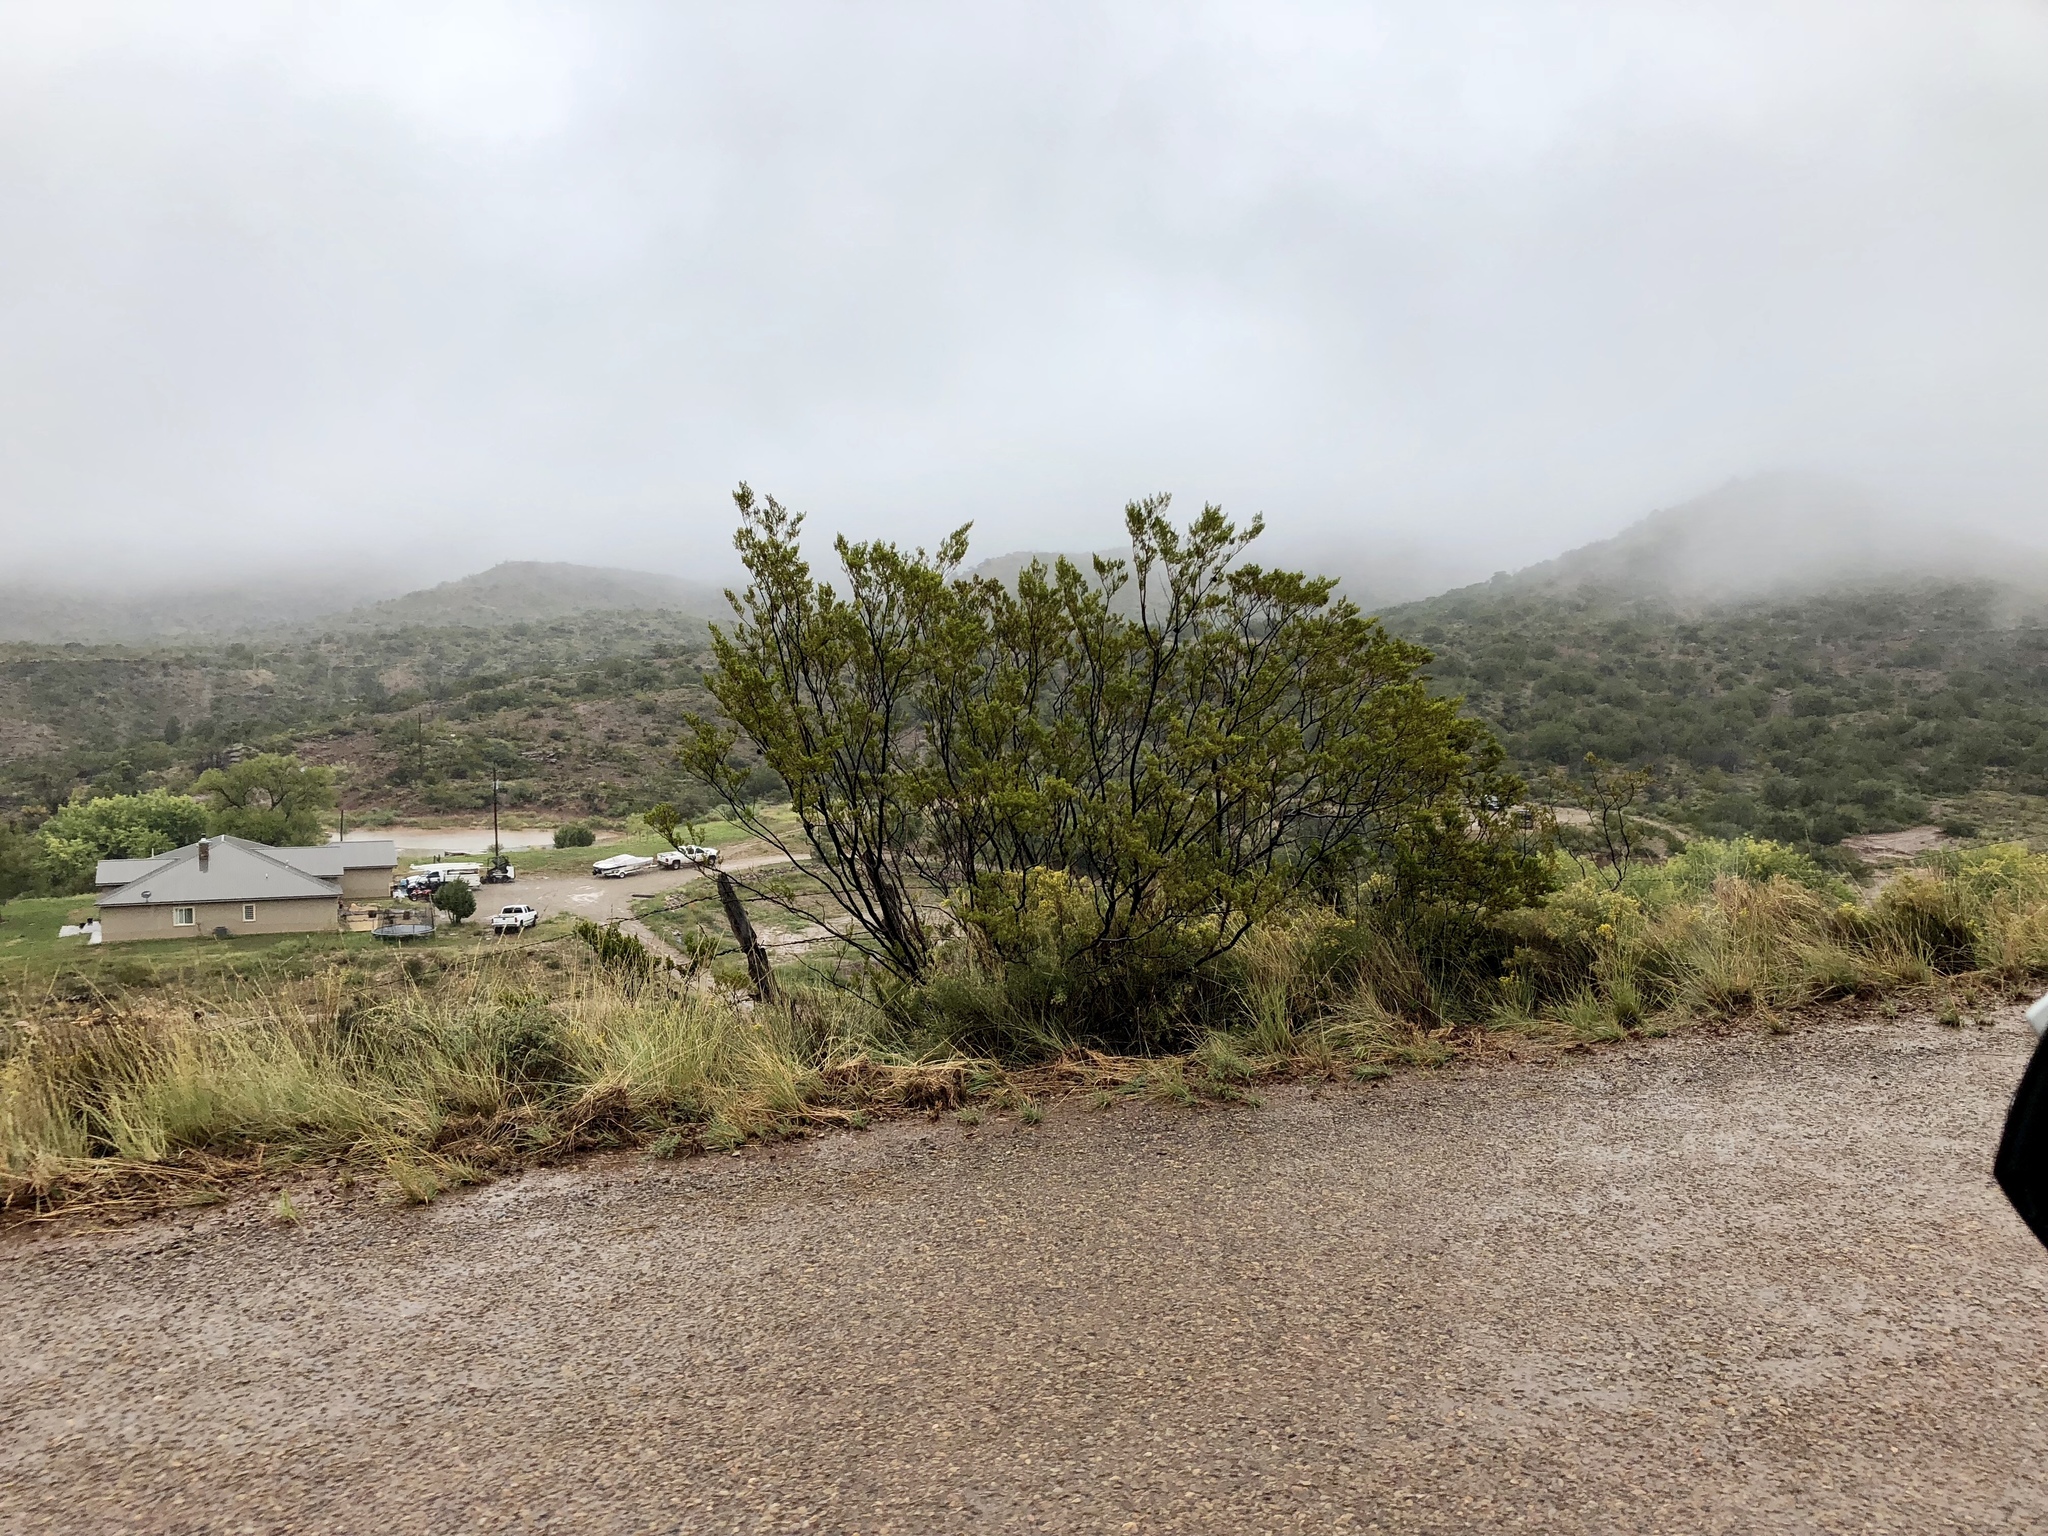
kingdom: Plantae
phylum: Tracheophyta
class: Magnoliopsida
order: Zygophyllales
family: Zygophyllaceae
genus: Larrea
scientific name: Larrea tridentata
